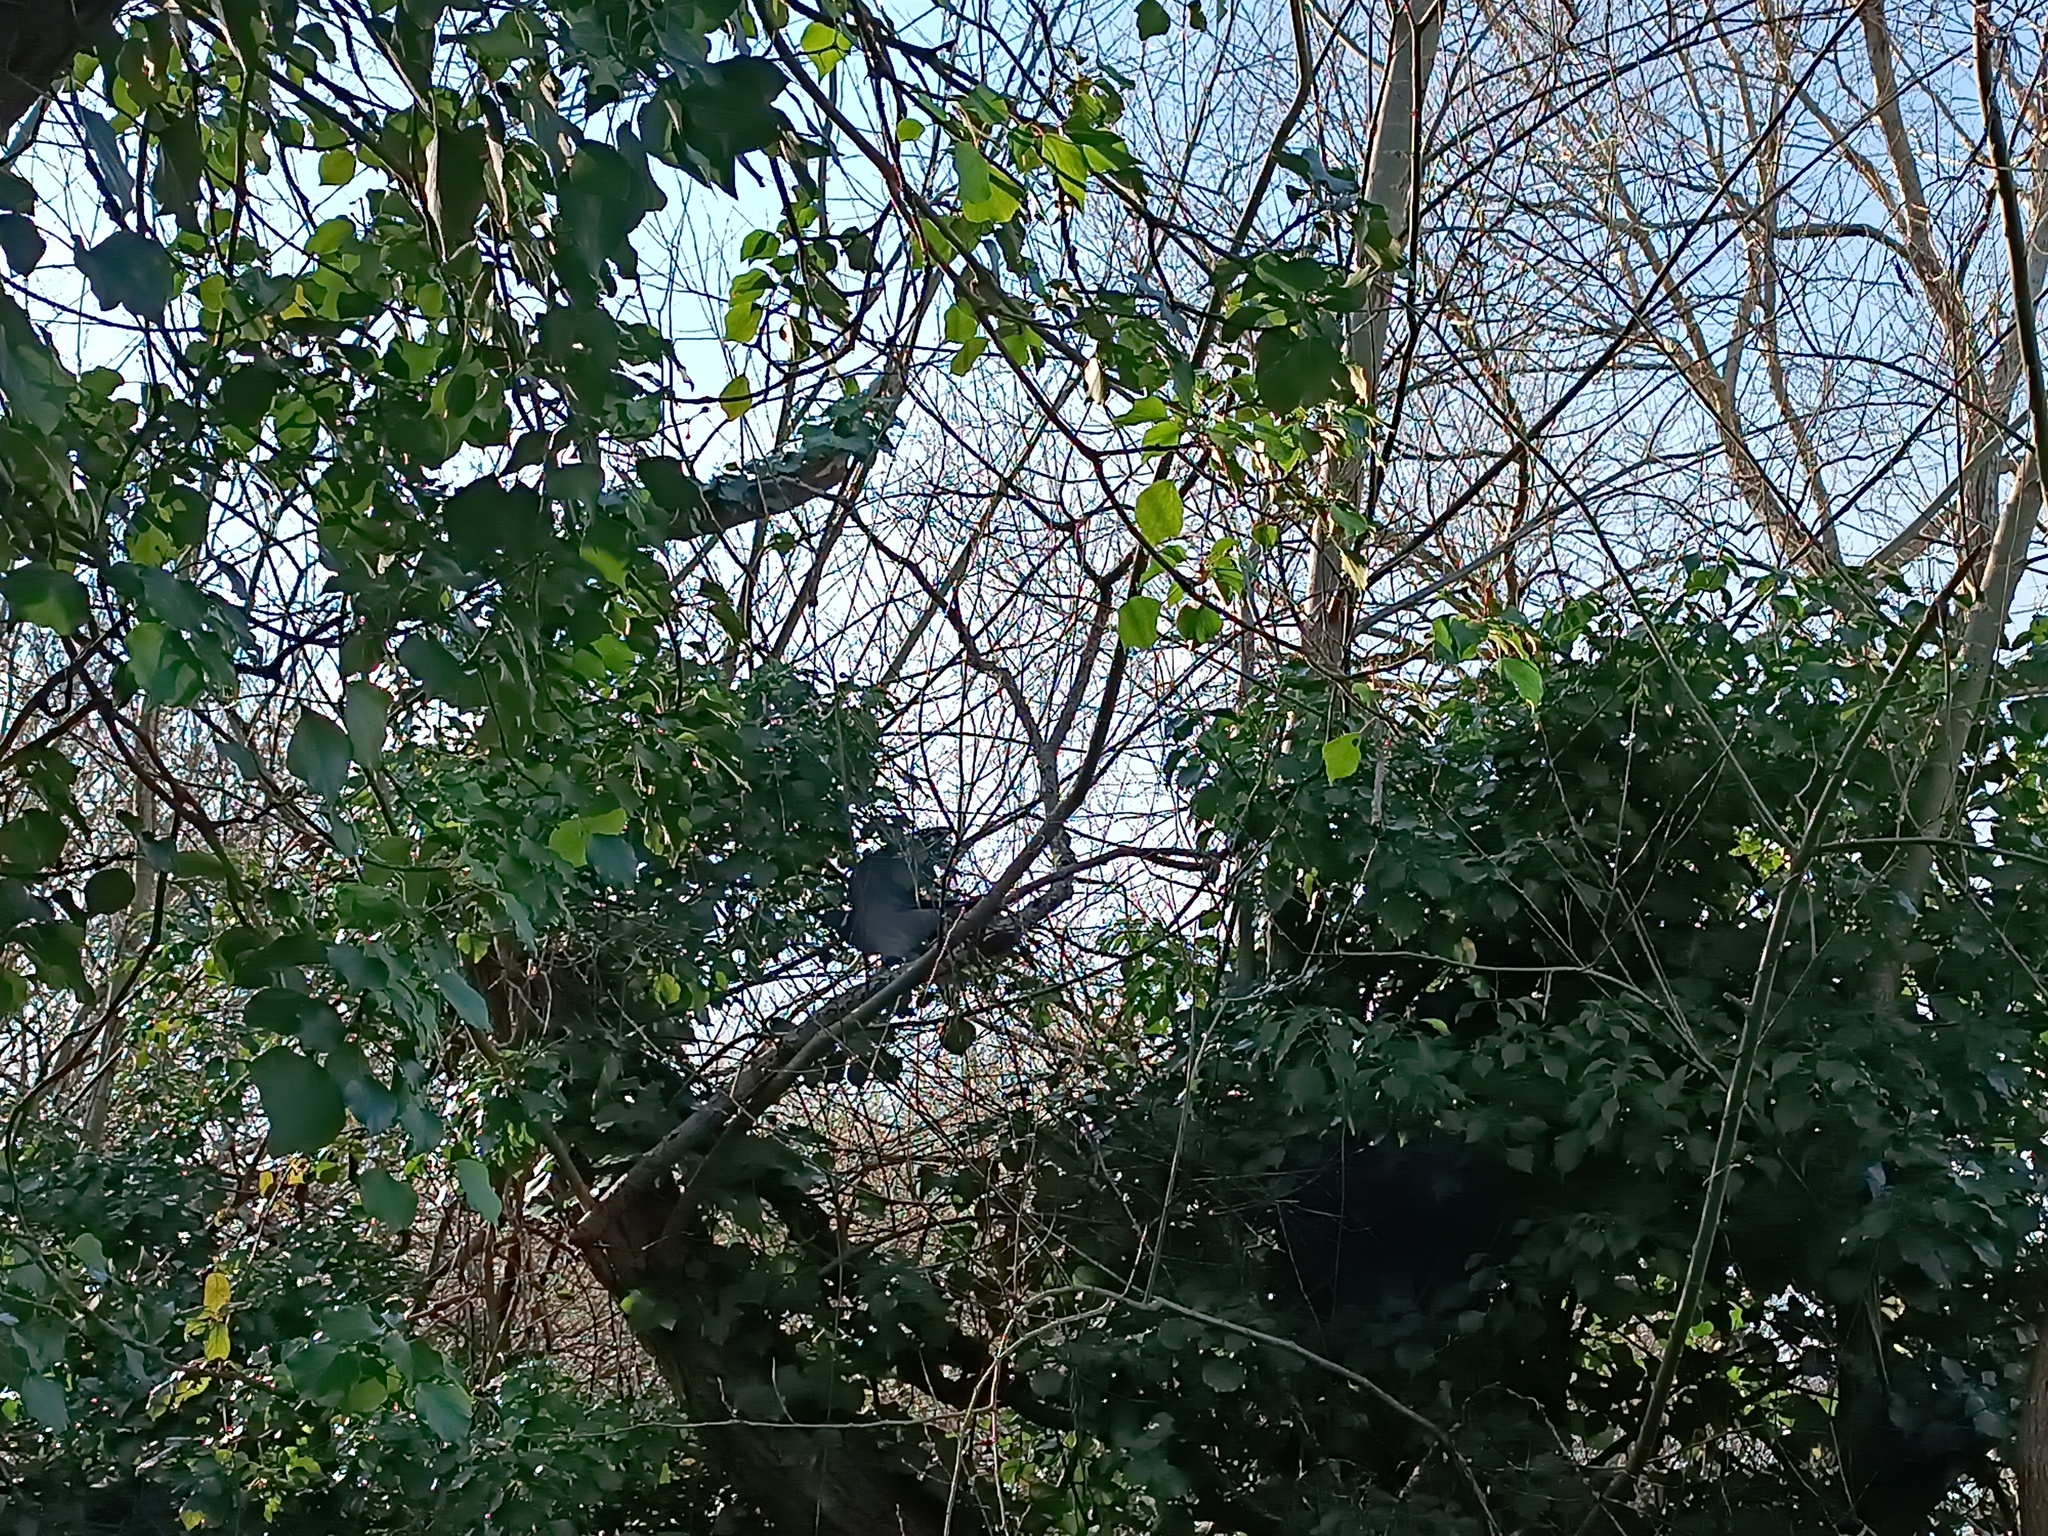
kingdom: Animalia
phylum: Chordata
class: Aves
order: Columbiformes
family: Columbidae
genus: Columba
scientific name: Columba palumbus
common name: Common wood pigeon
